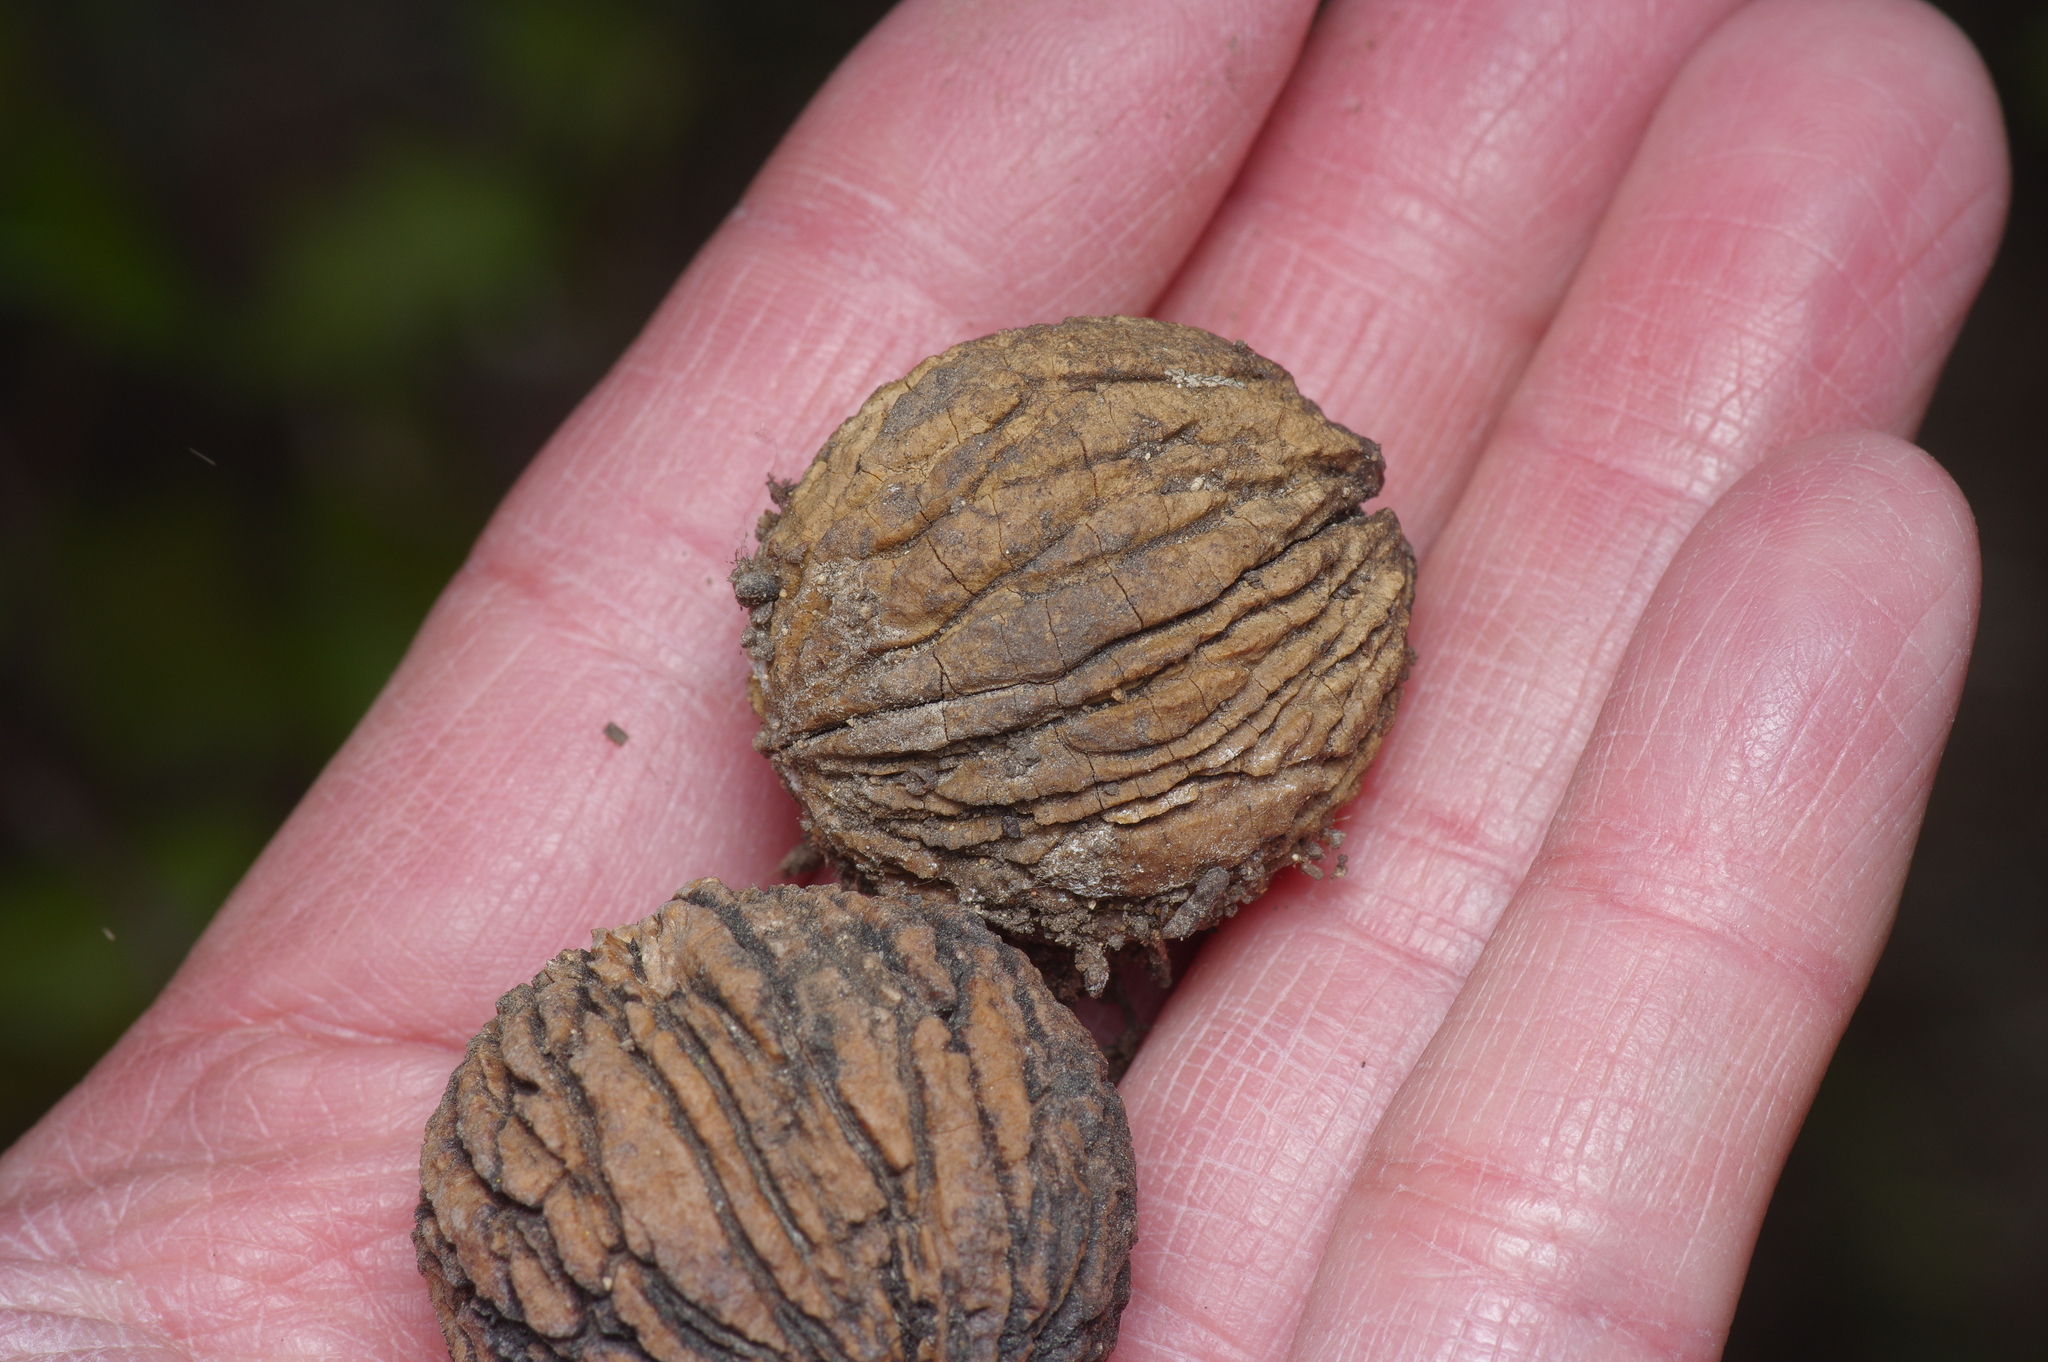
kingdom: Plantae
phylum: Tracheophyta
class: Magnoliopsida
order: Fagales
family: Juglandaceae
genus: Juglans
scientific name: Juglans major
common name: Arizona walnut
